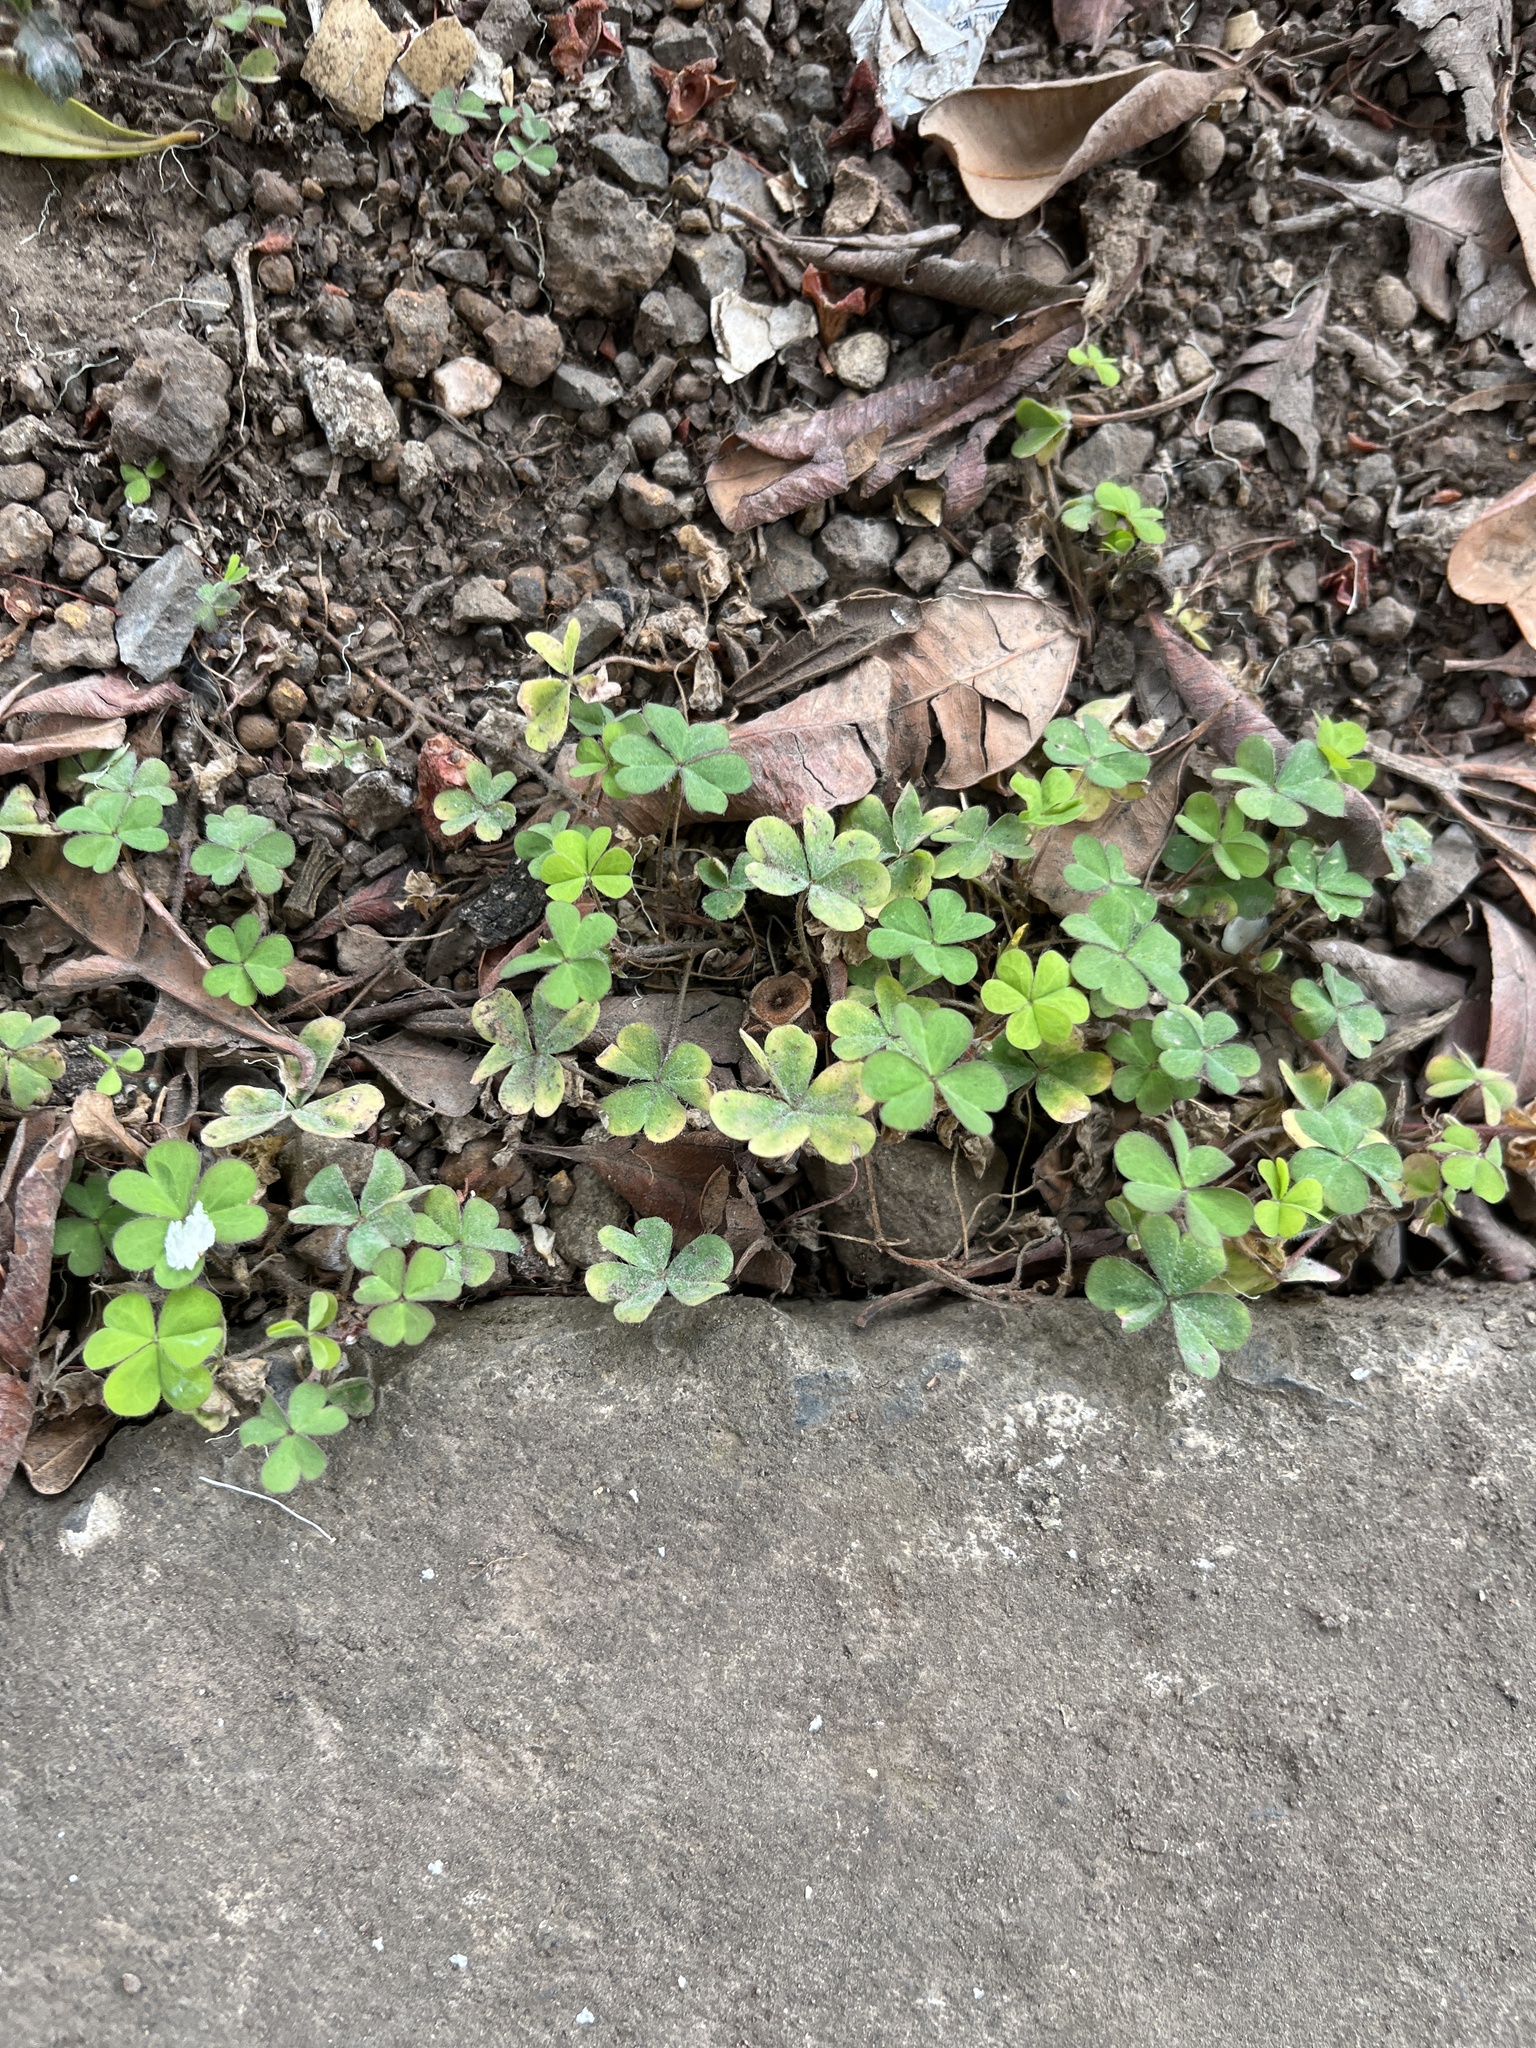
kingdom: Plantae
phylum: Tracheophyta
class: Magnoliopsida
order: Oxalidales
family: Oxalidaceae
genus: Oxalis
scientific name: Oxalis corniculata
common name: Procumbent yellow-sorrel
